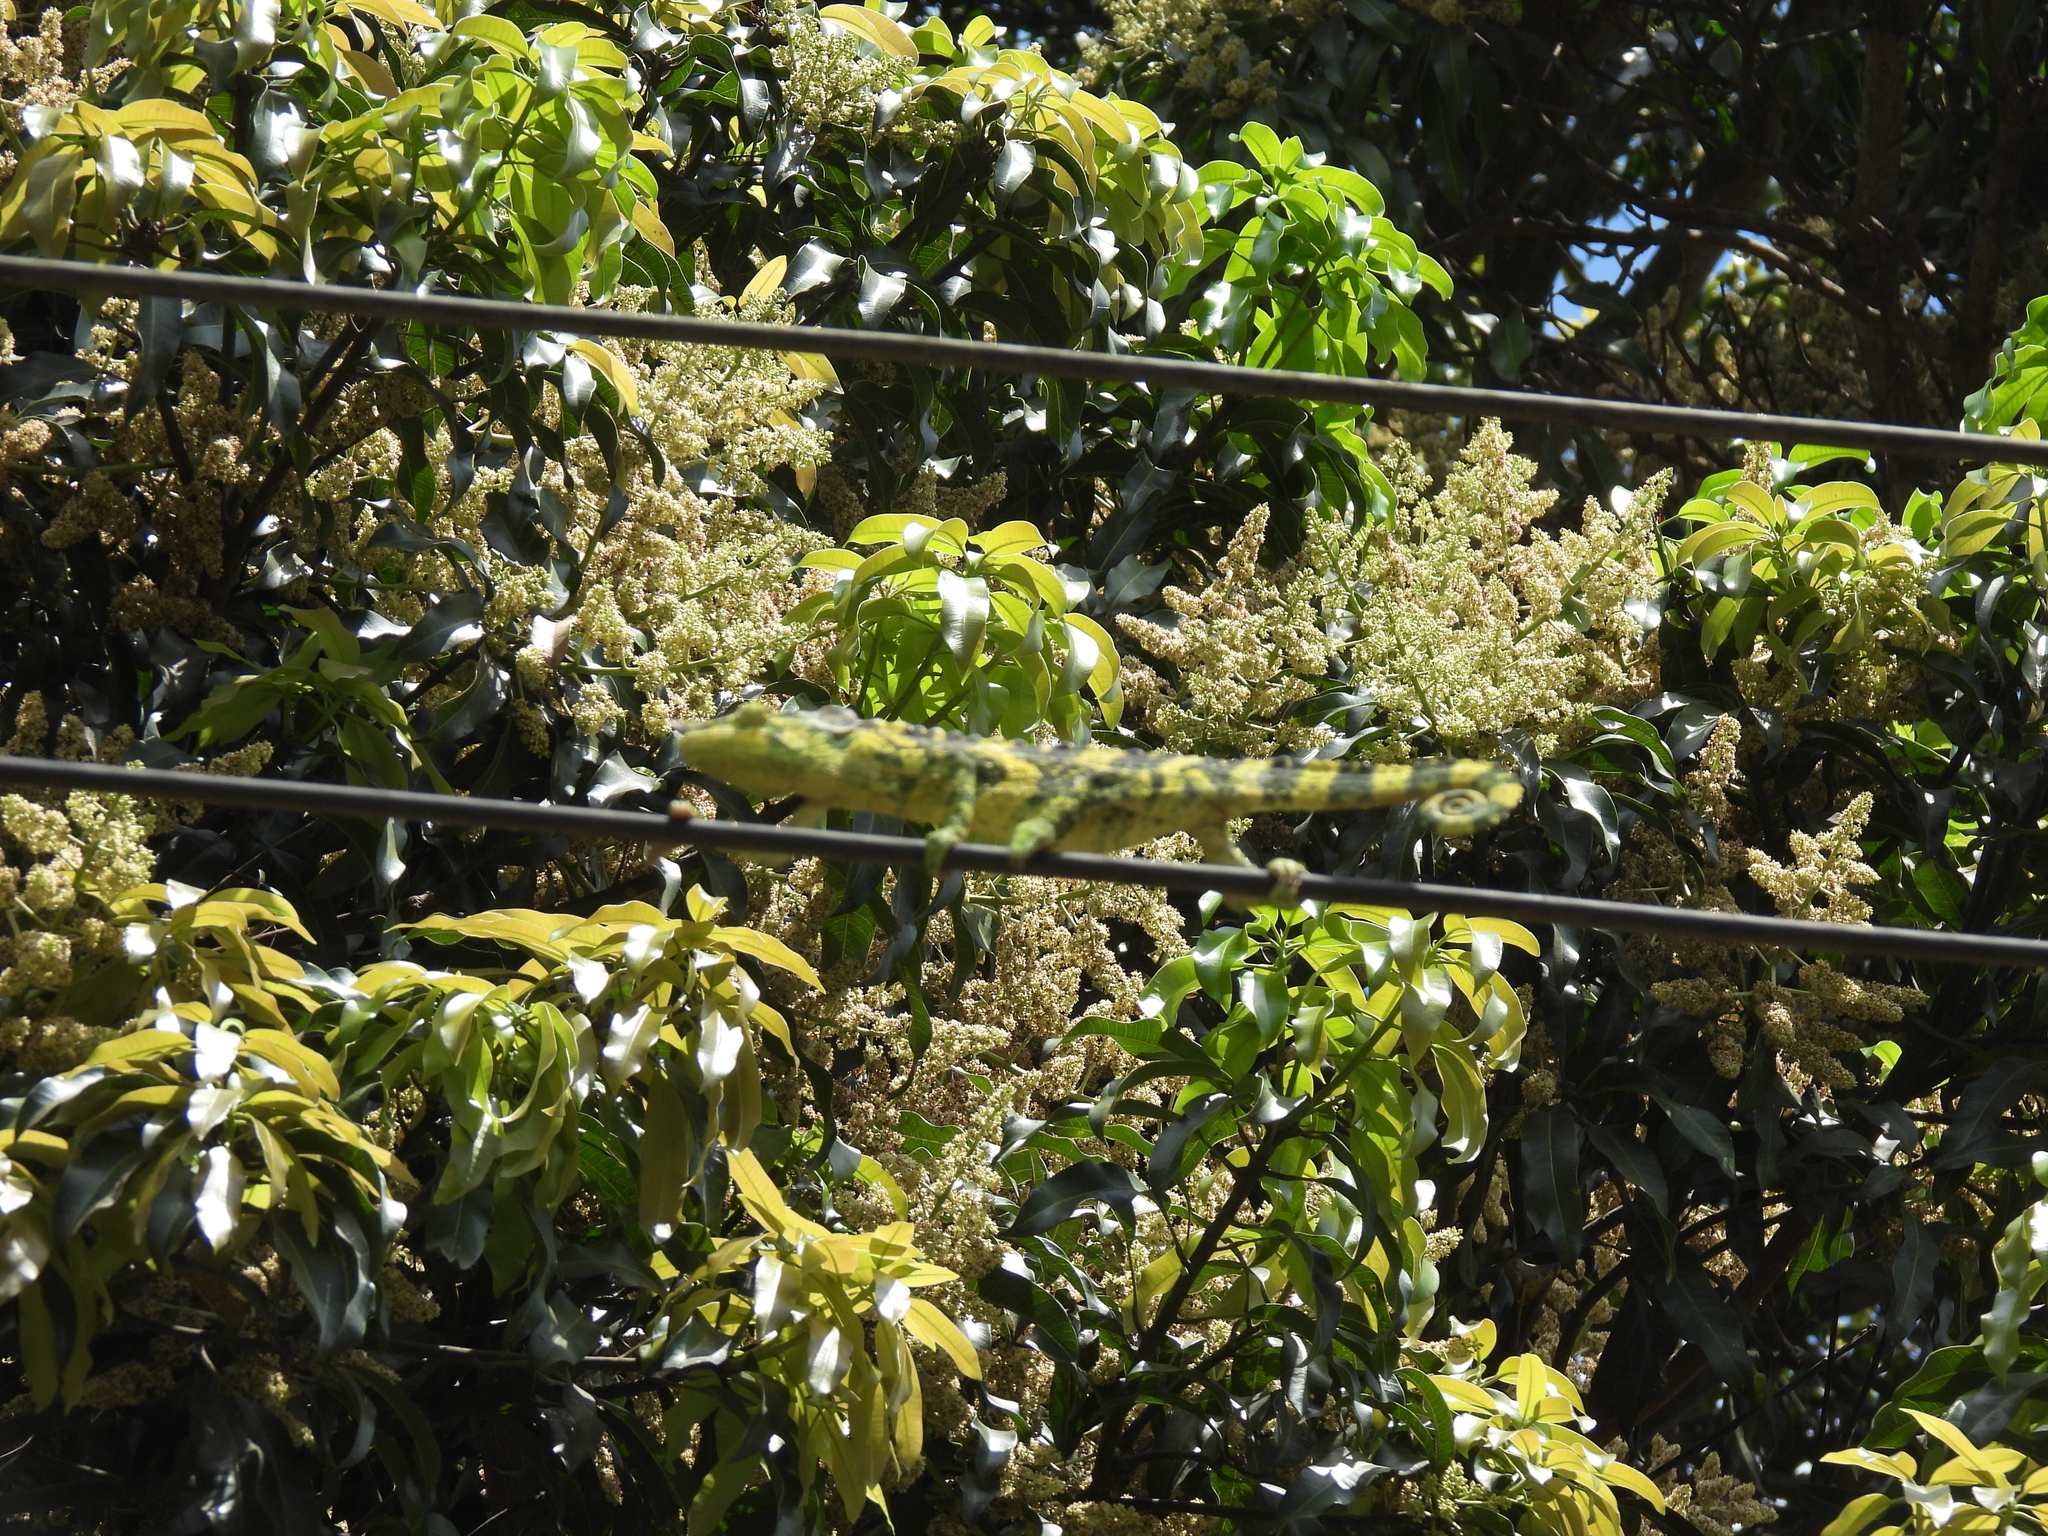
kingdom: Animalia
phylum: Chordata
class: Squamata
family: Chamaeleonidae
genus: Trioceros
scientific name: Trioceros melleri
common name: Meller's chameleon
